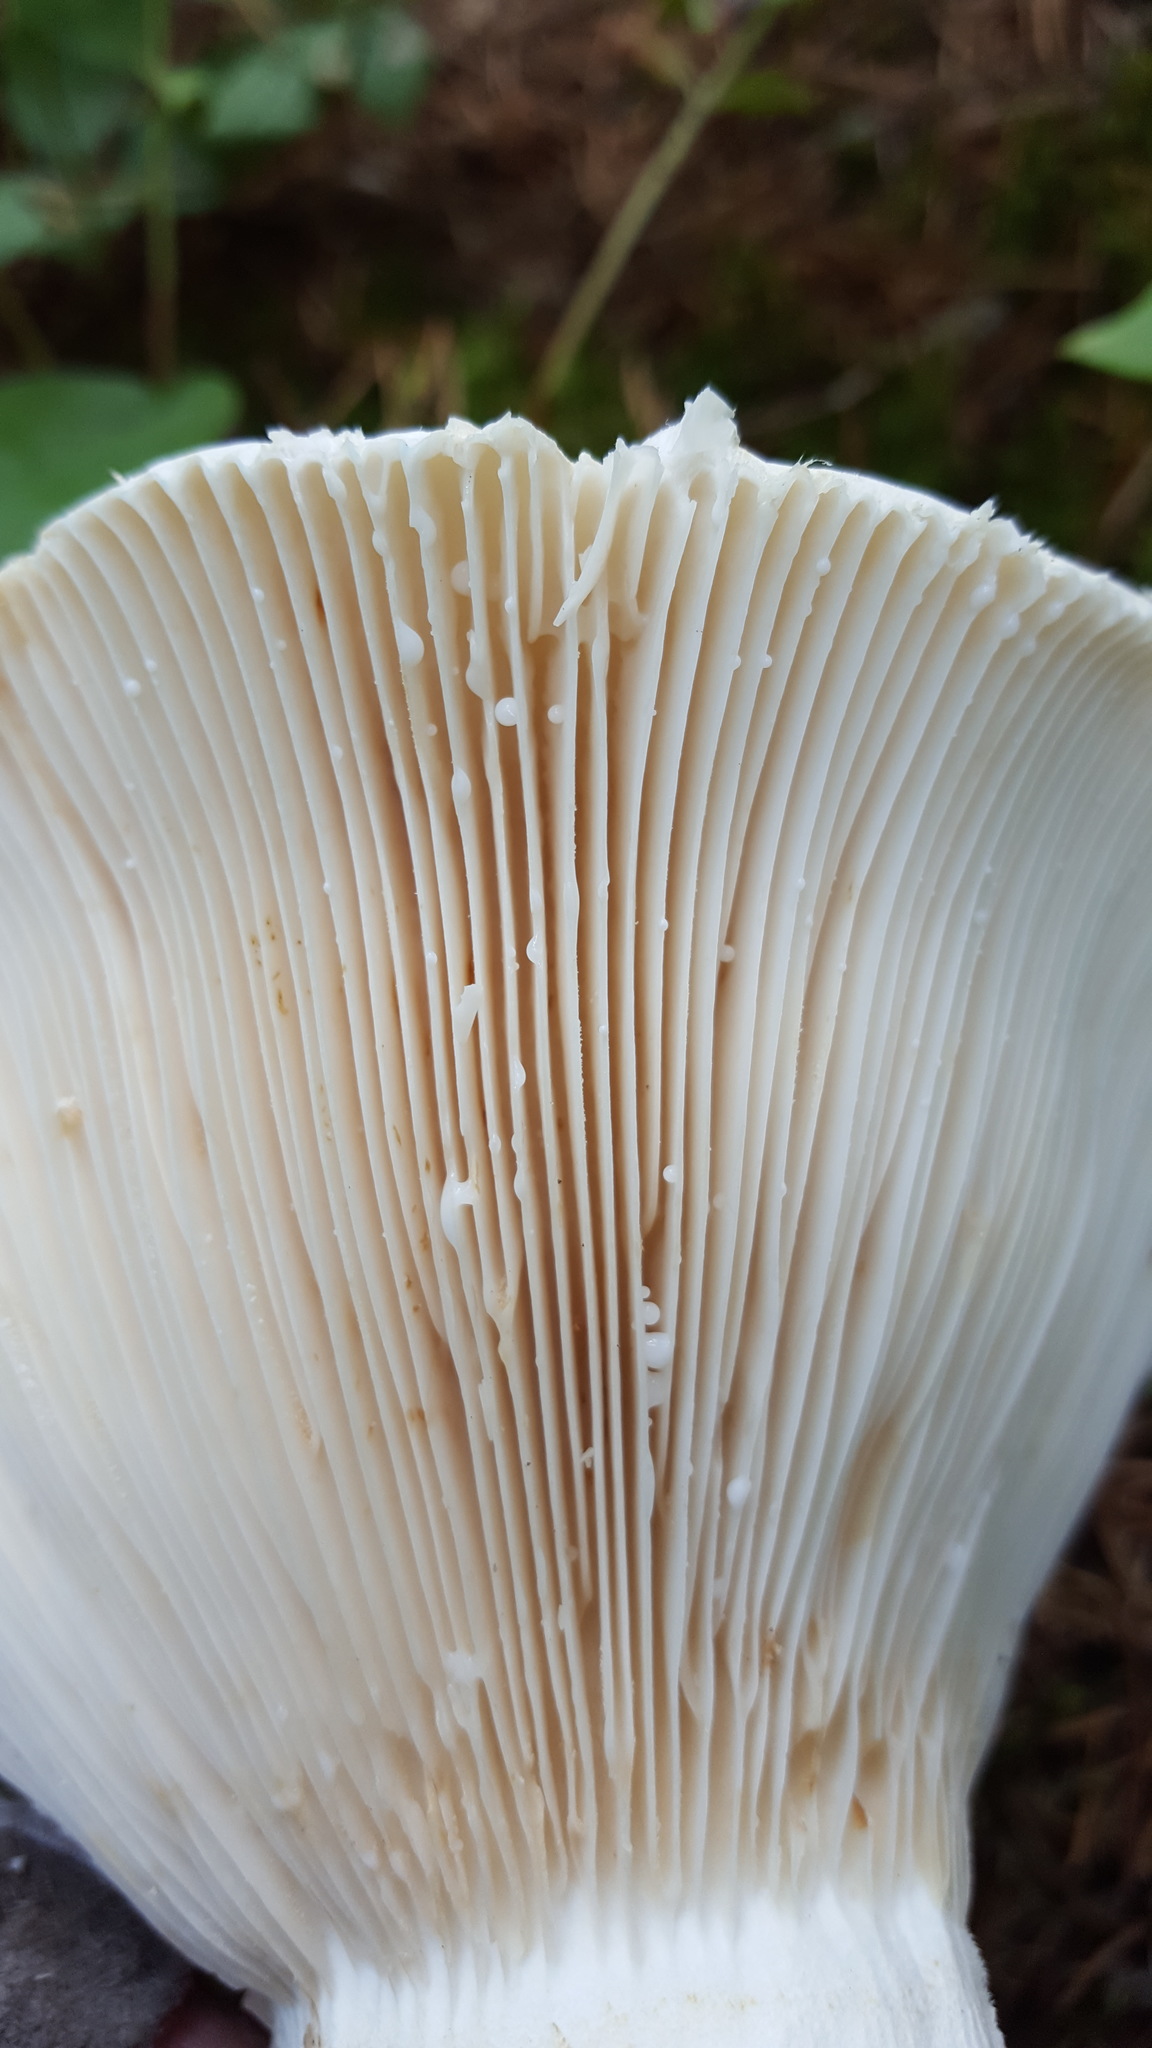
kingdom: Fungi
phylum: Basidiomycota
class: Agaricomycetes
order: Russulales
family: Russulaceae
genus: Lactifluus
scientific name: Lactifluus piperatus
